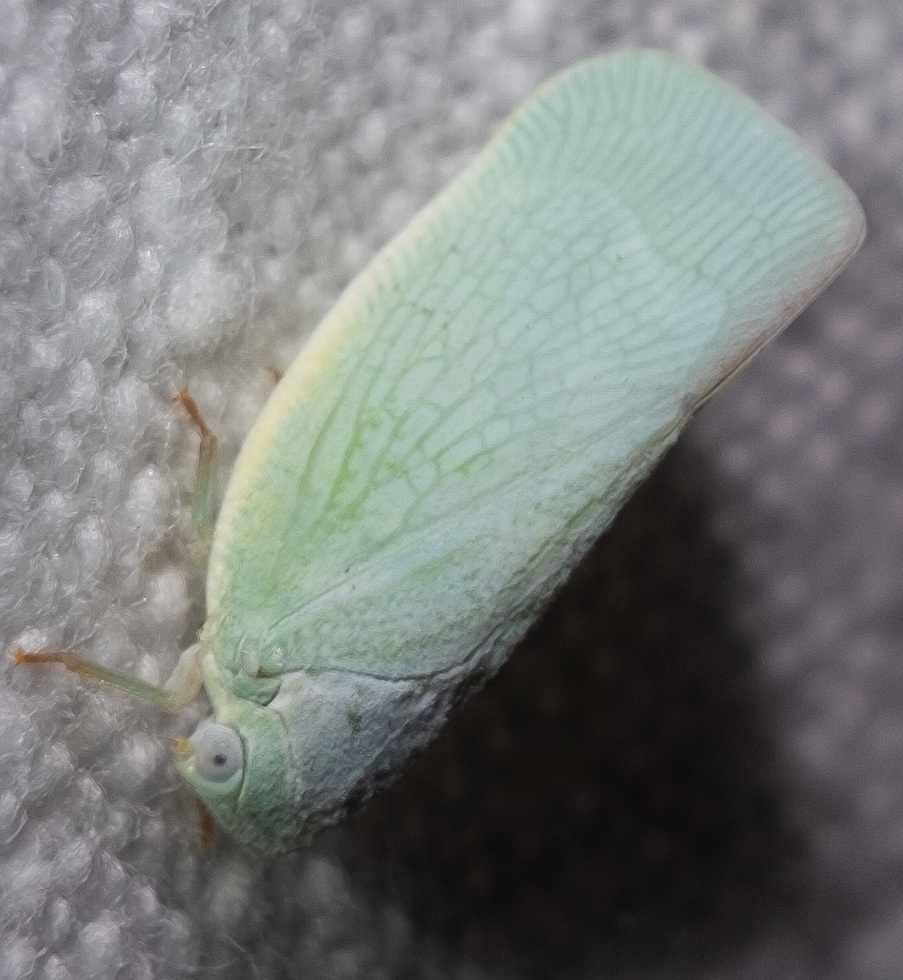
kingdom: Animalia
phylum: Arthropoda
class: Insecta
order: Hemiptera
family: Flatidae
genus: Flatormenis
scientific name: Flatormenis proxima
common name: Northern flatid planthopper
